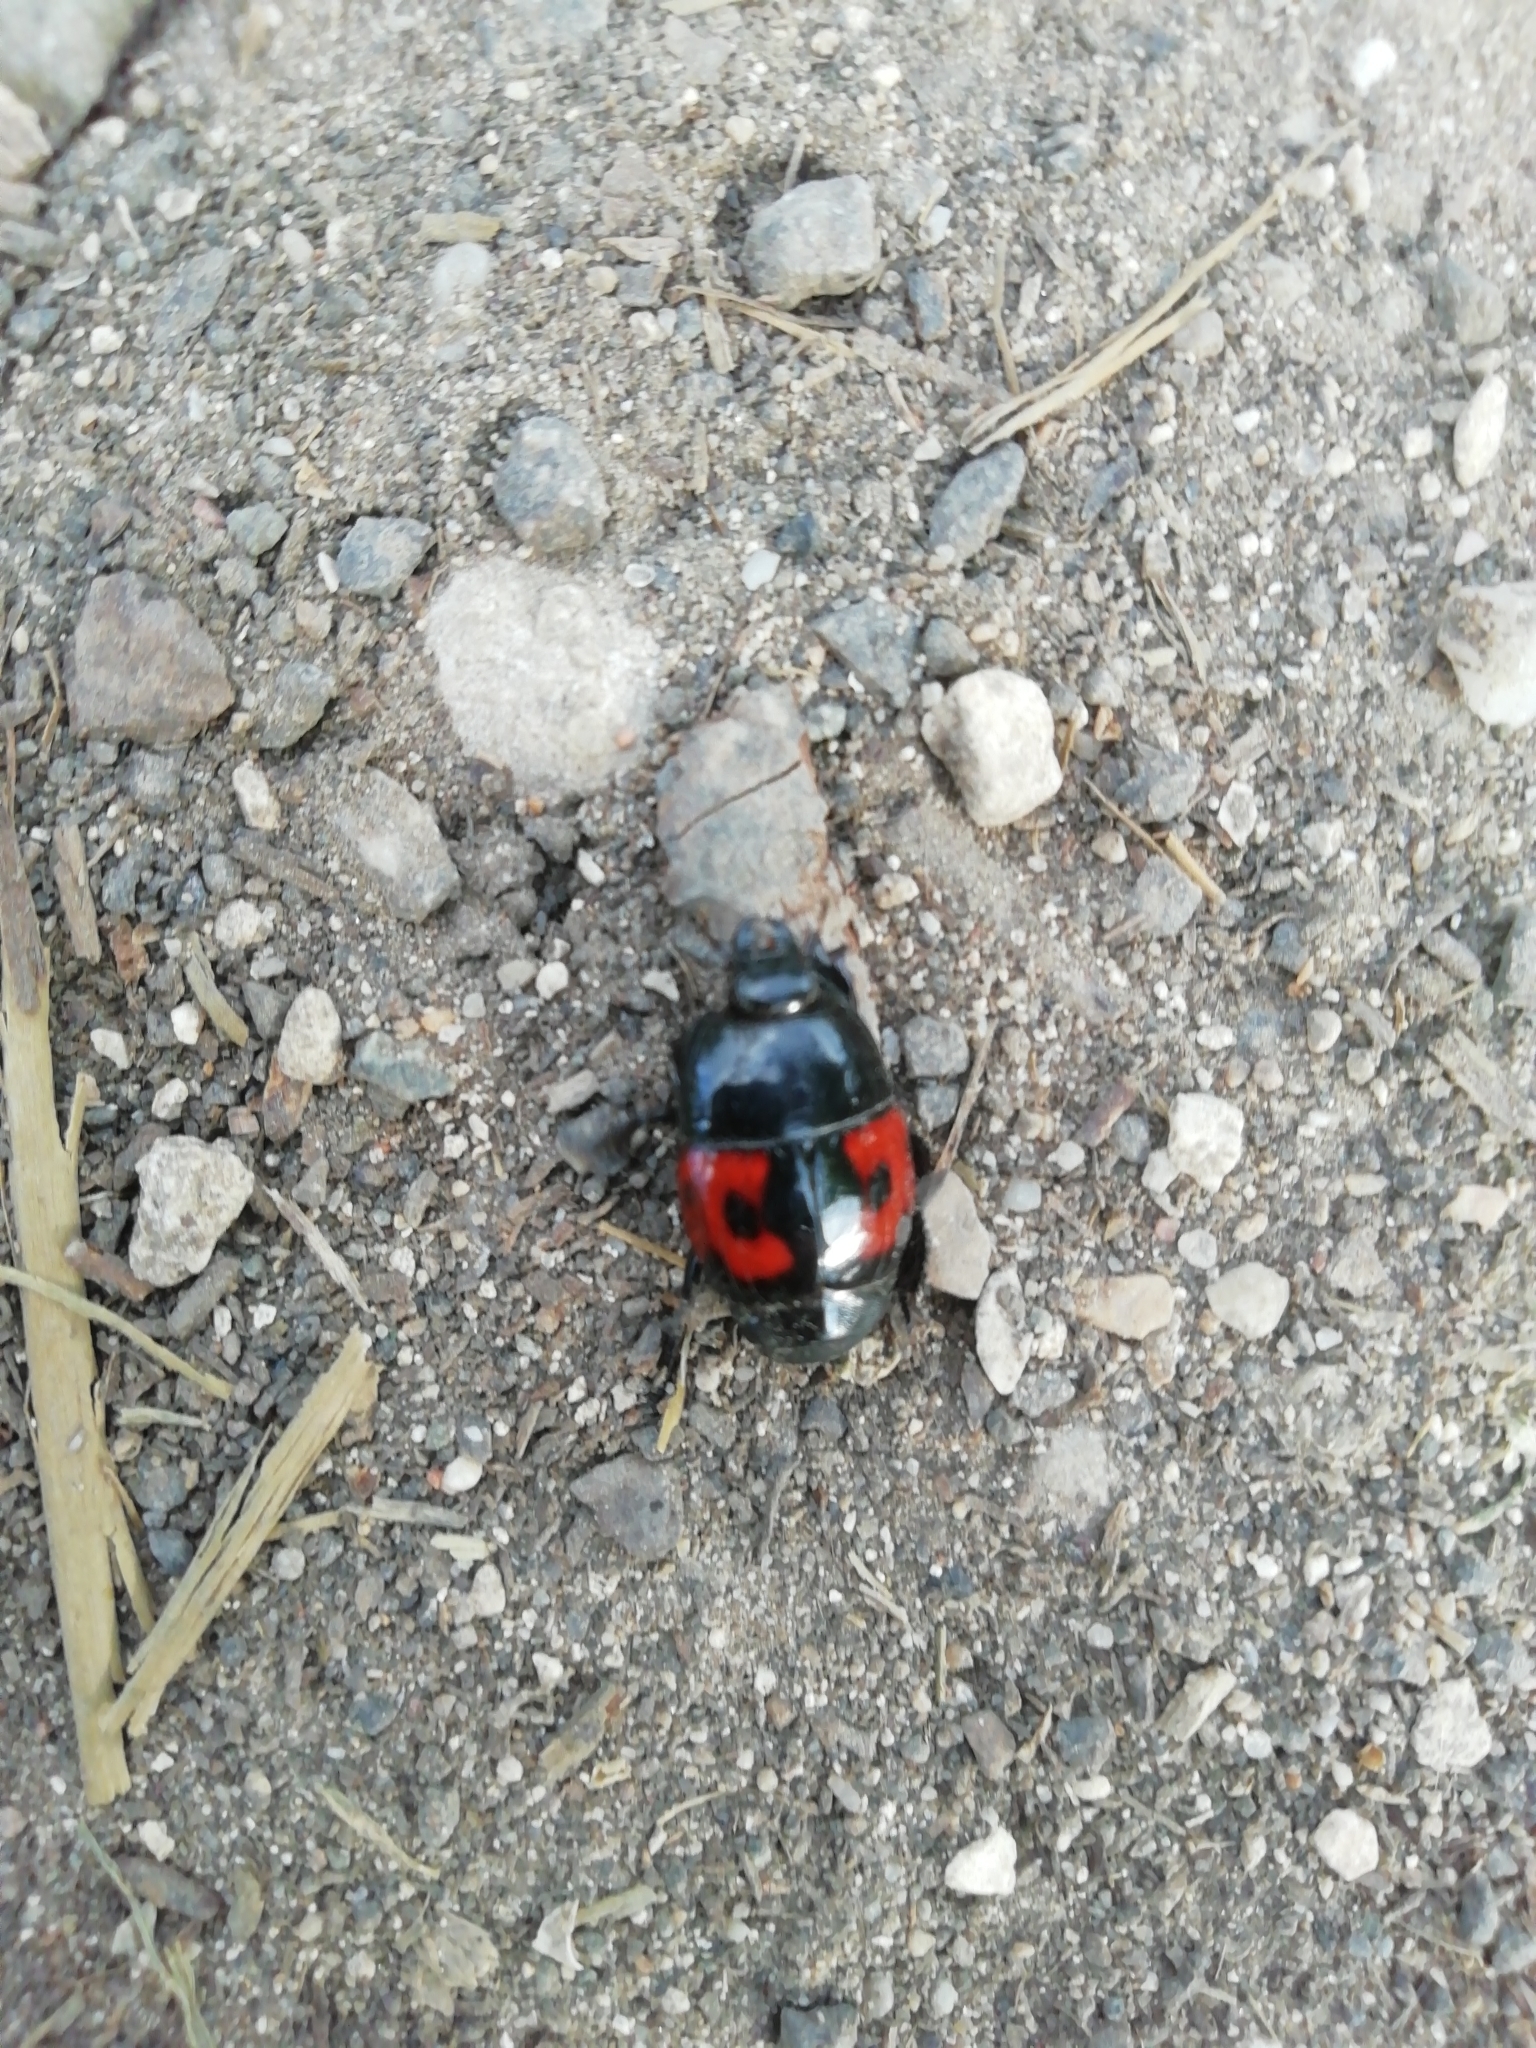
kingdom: Animalia
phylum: Arthropoda
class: Insecta
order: Coleoptera
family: Histeridae
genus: Hister
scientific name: Hister quadrimaculatus
